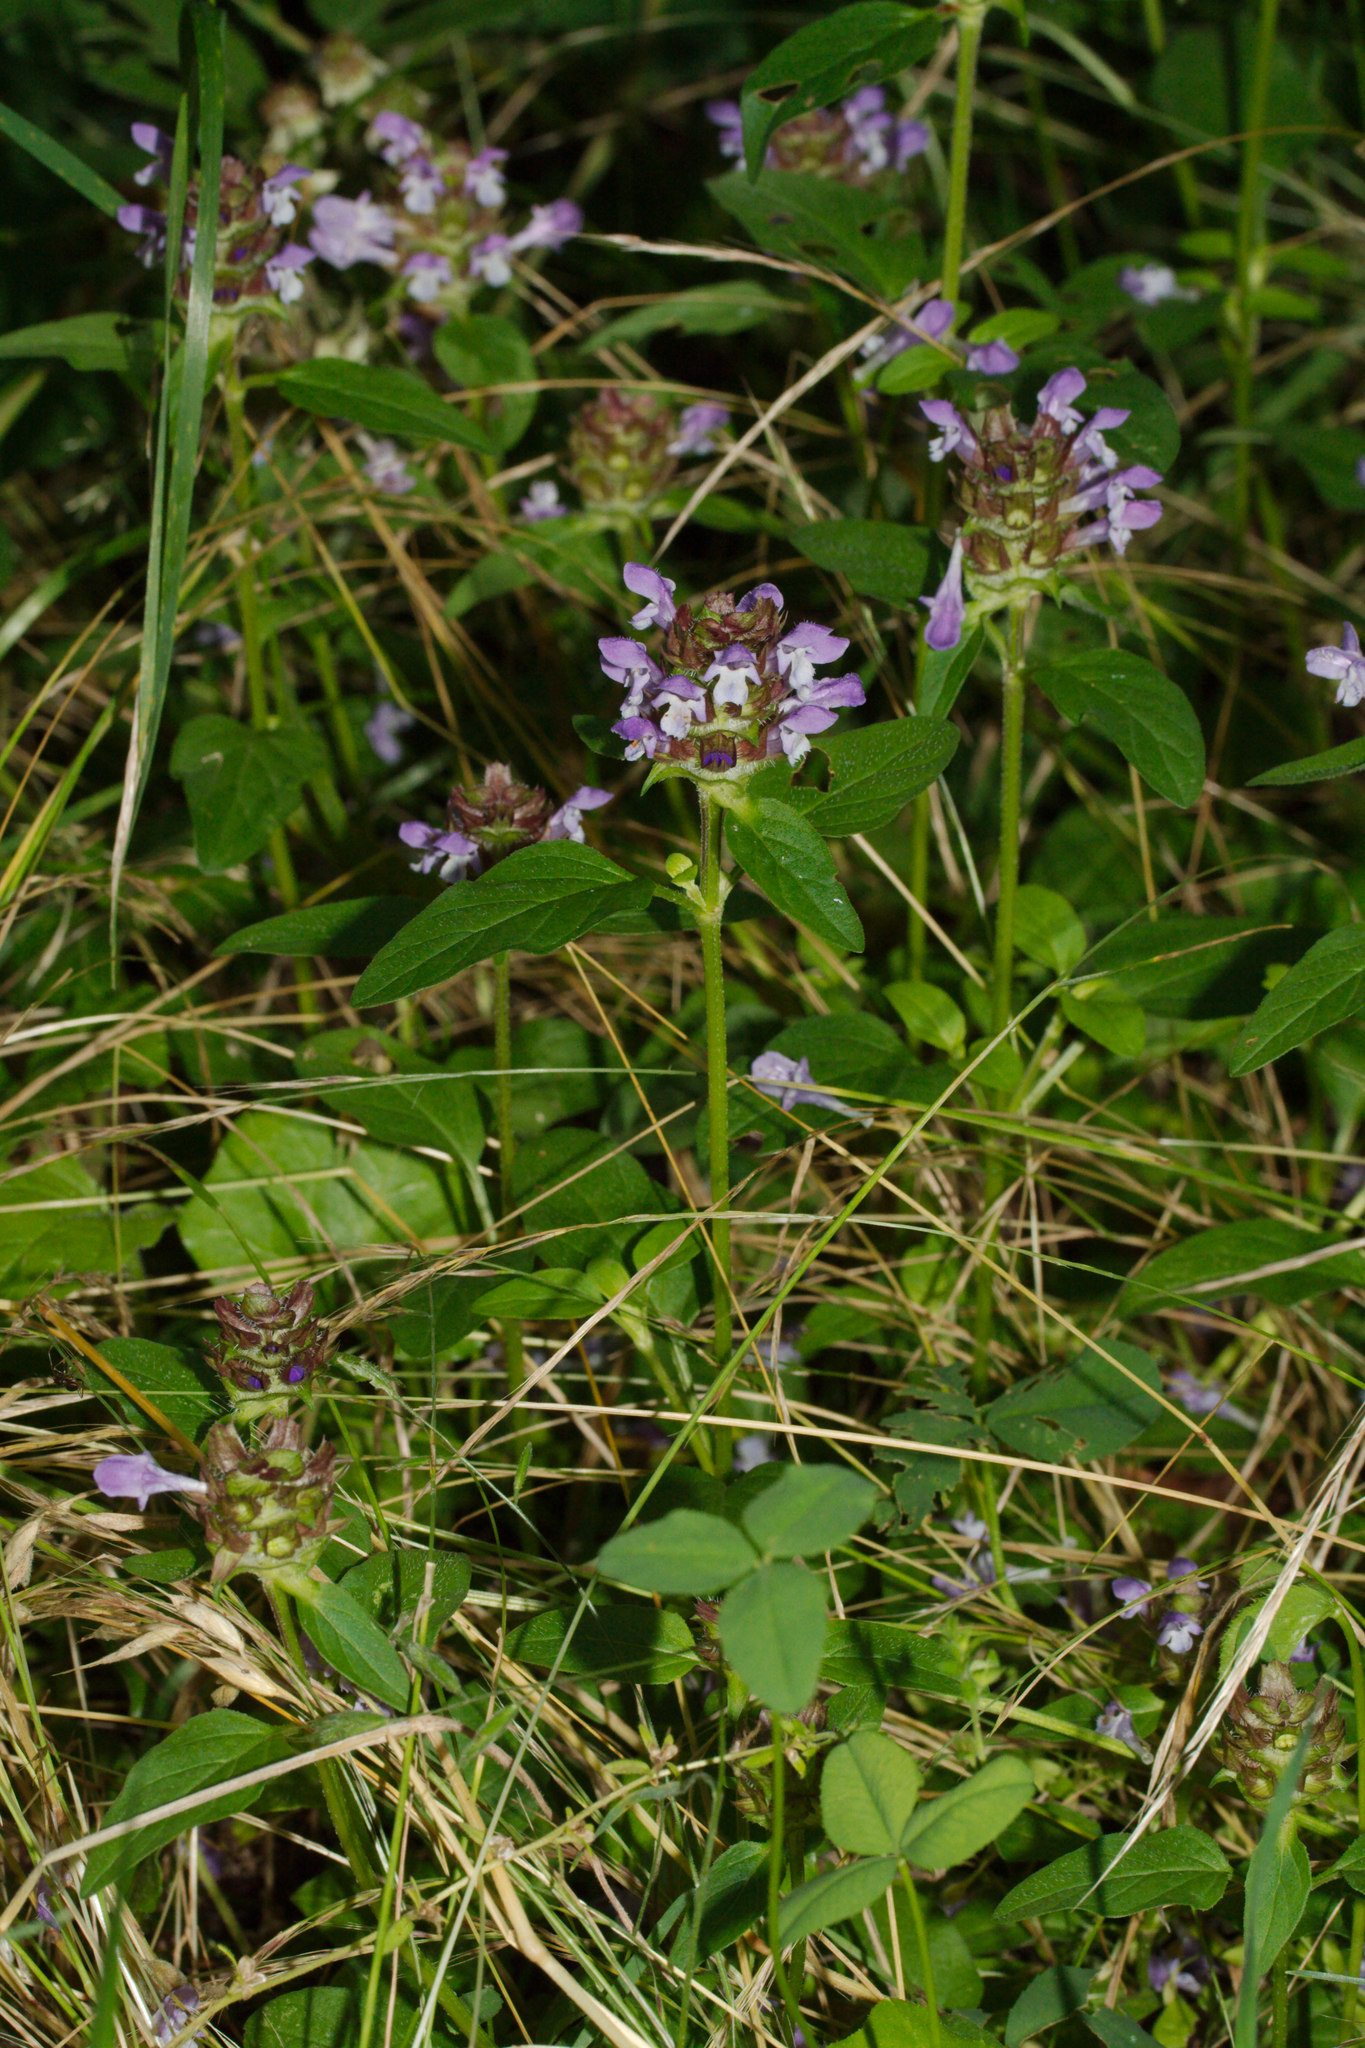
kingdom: Plantae
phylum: Tracheophyta
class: Magnoliopsida
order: Lamiales
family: Lamiaceae
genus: Prunella
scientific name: Prunella vulgaris
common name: Heal-all
